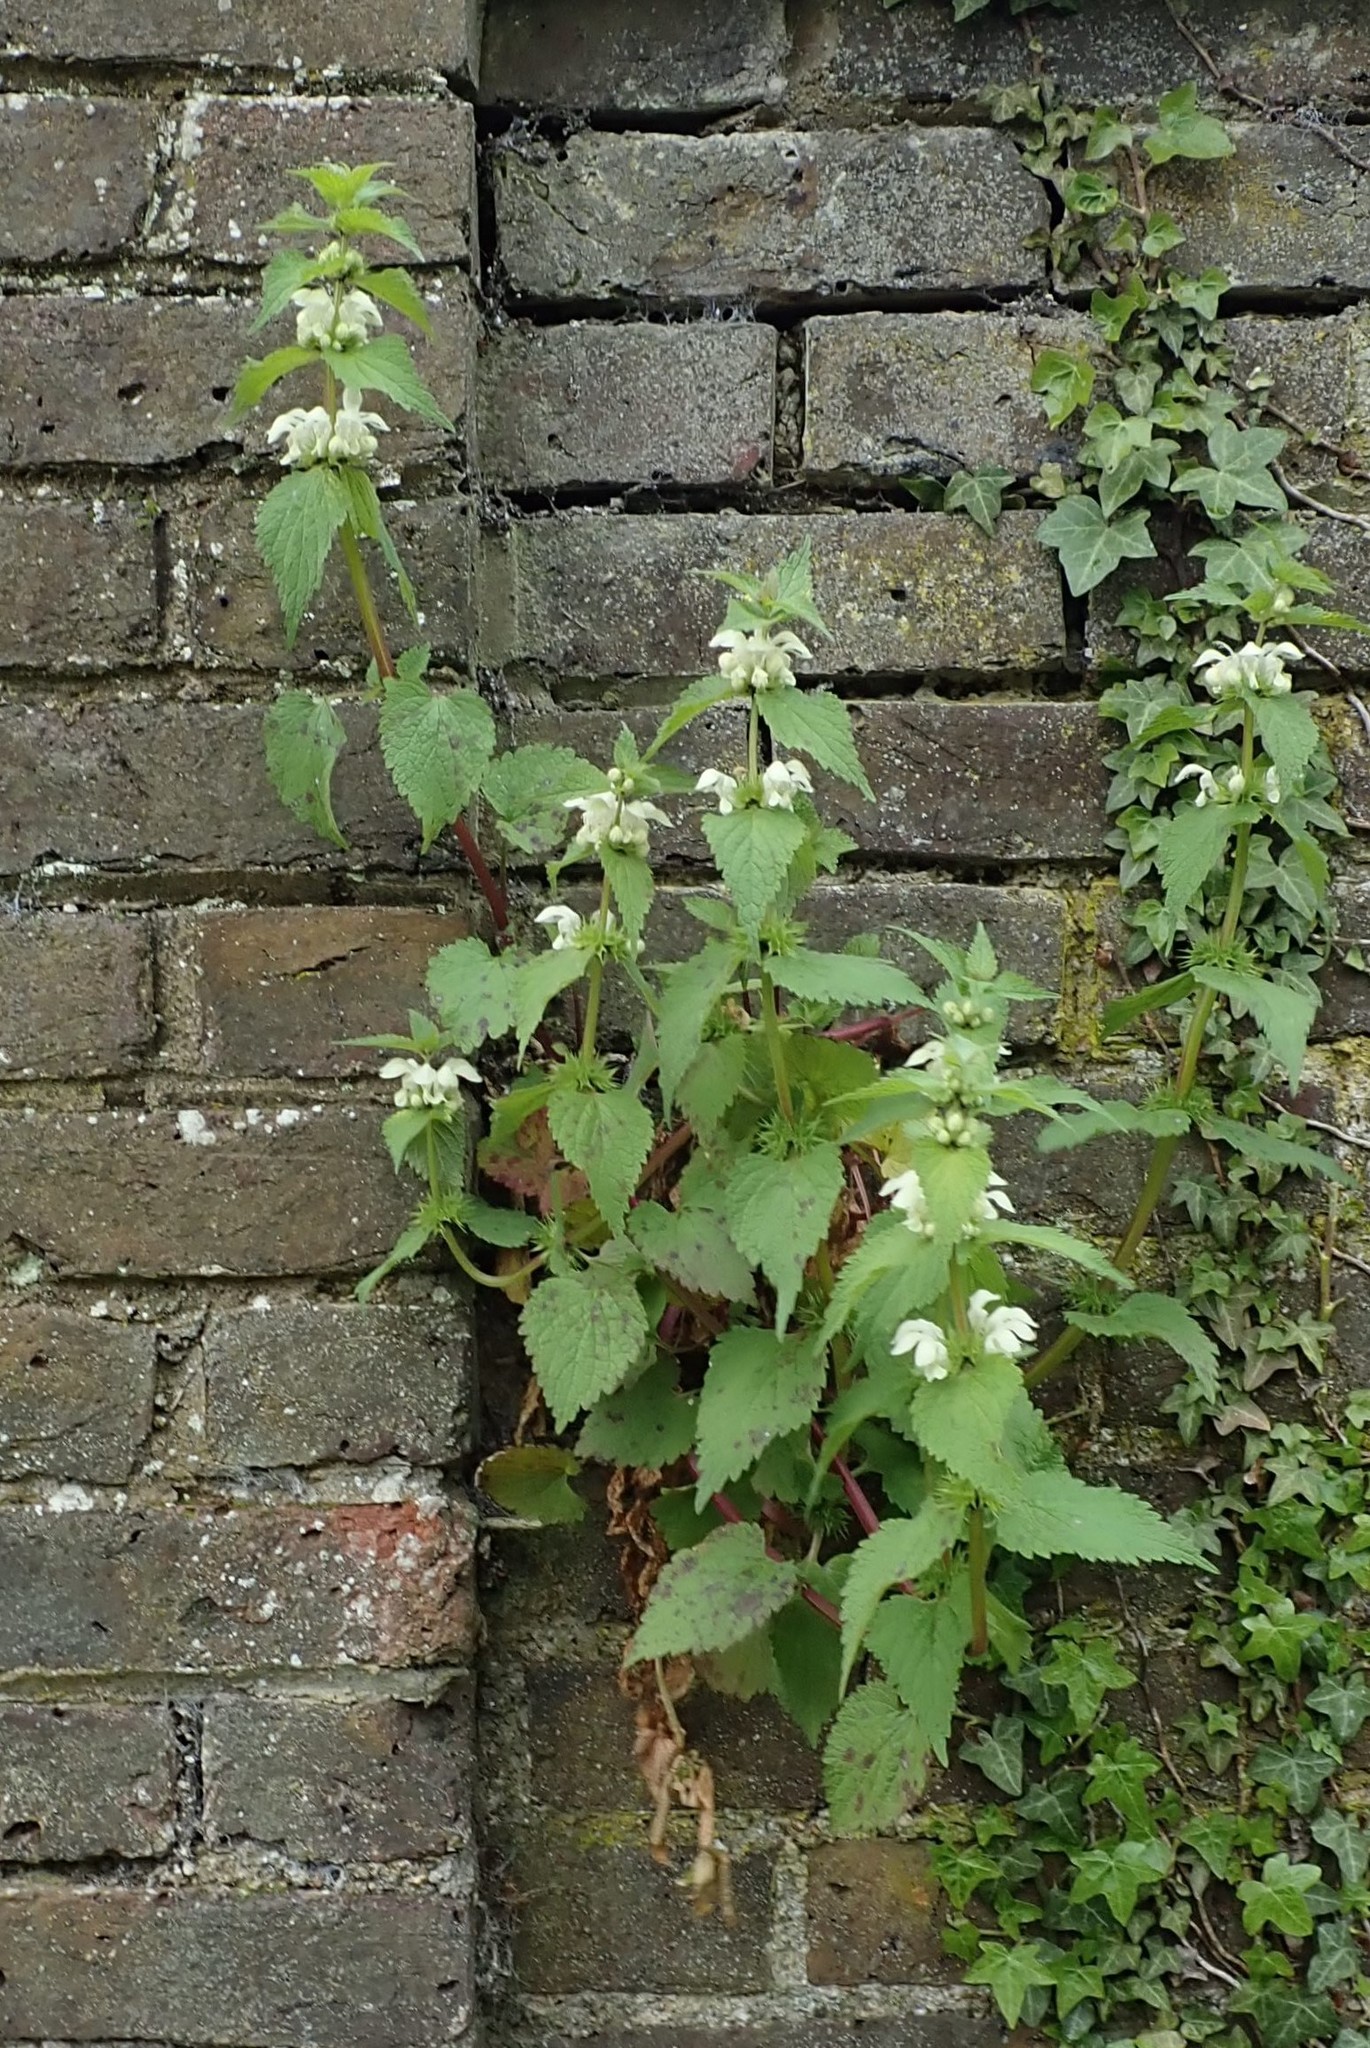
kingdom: Plantae
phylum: Tracheophyta
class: Magnoliopsida
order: Lamiales
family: Lamiaceae
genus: Lamium
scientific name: Lamium album
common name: White dead-nettle
